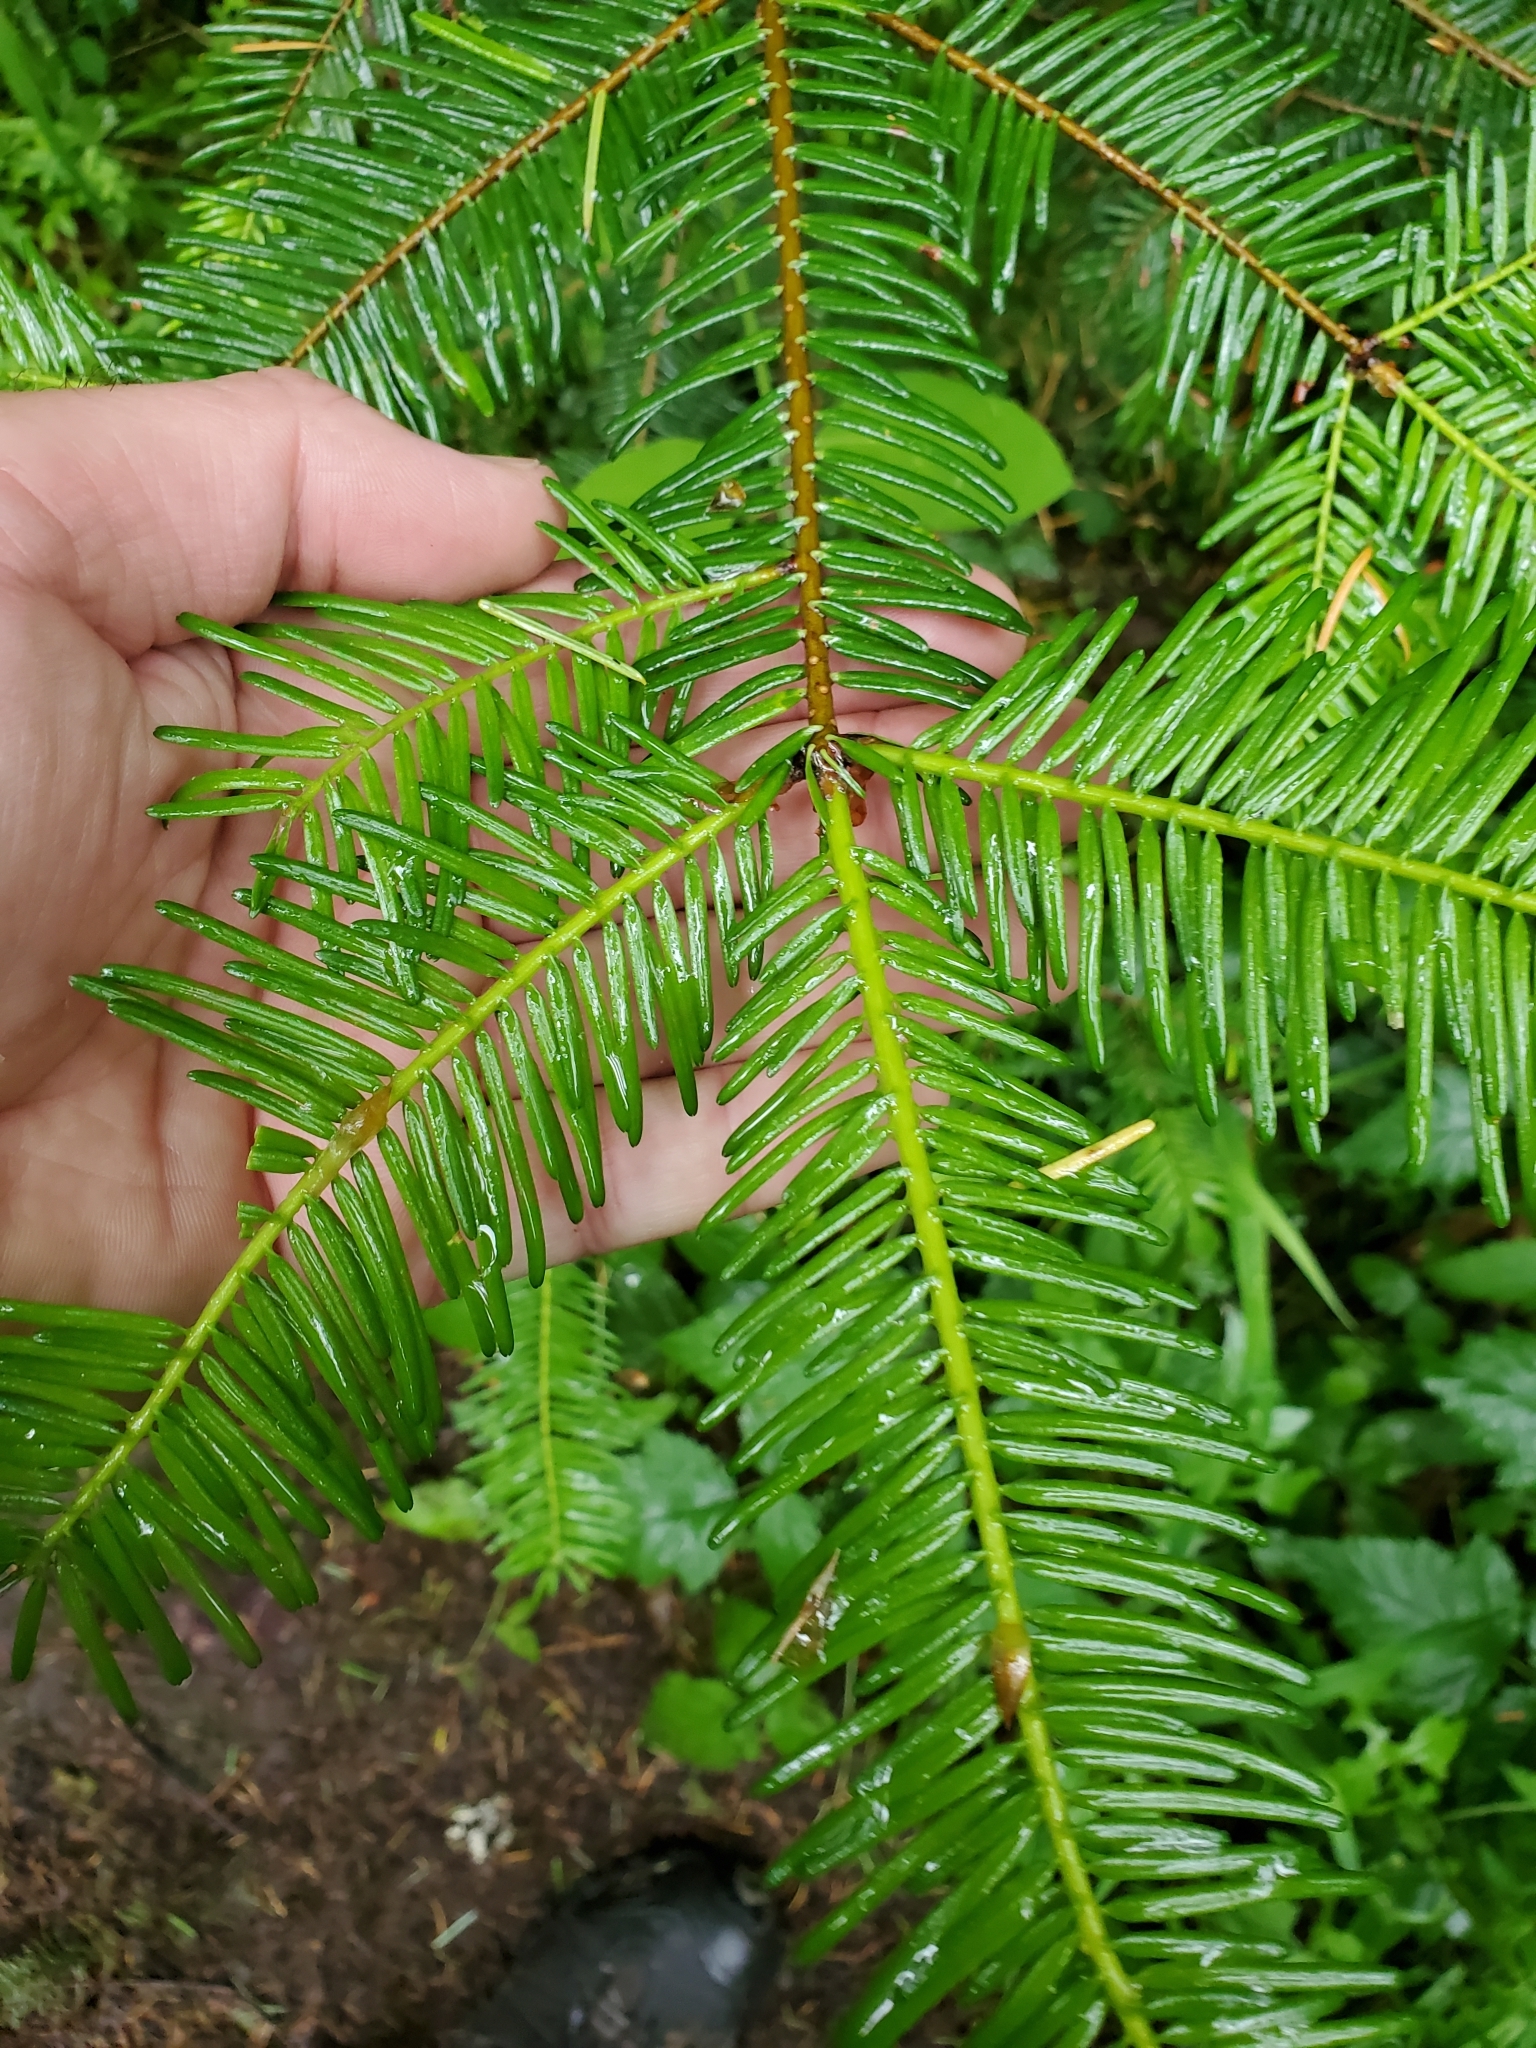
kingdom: Plantae
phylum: Tracheophyta
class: Pinopsida
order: Pinales
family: Pinaceae
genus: Abies
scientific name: Abies grandis
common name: Giant fir
